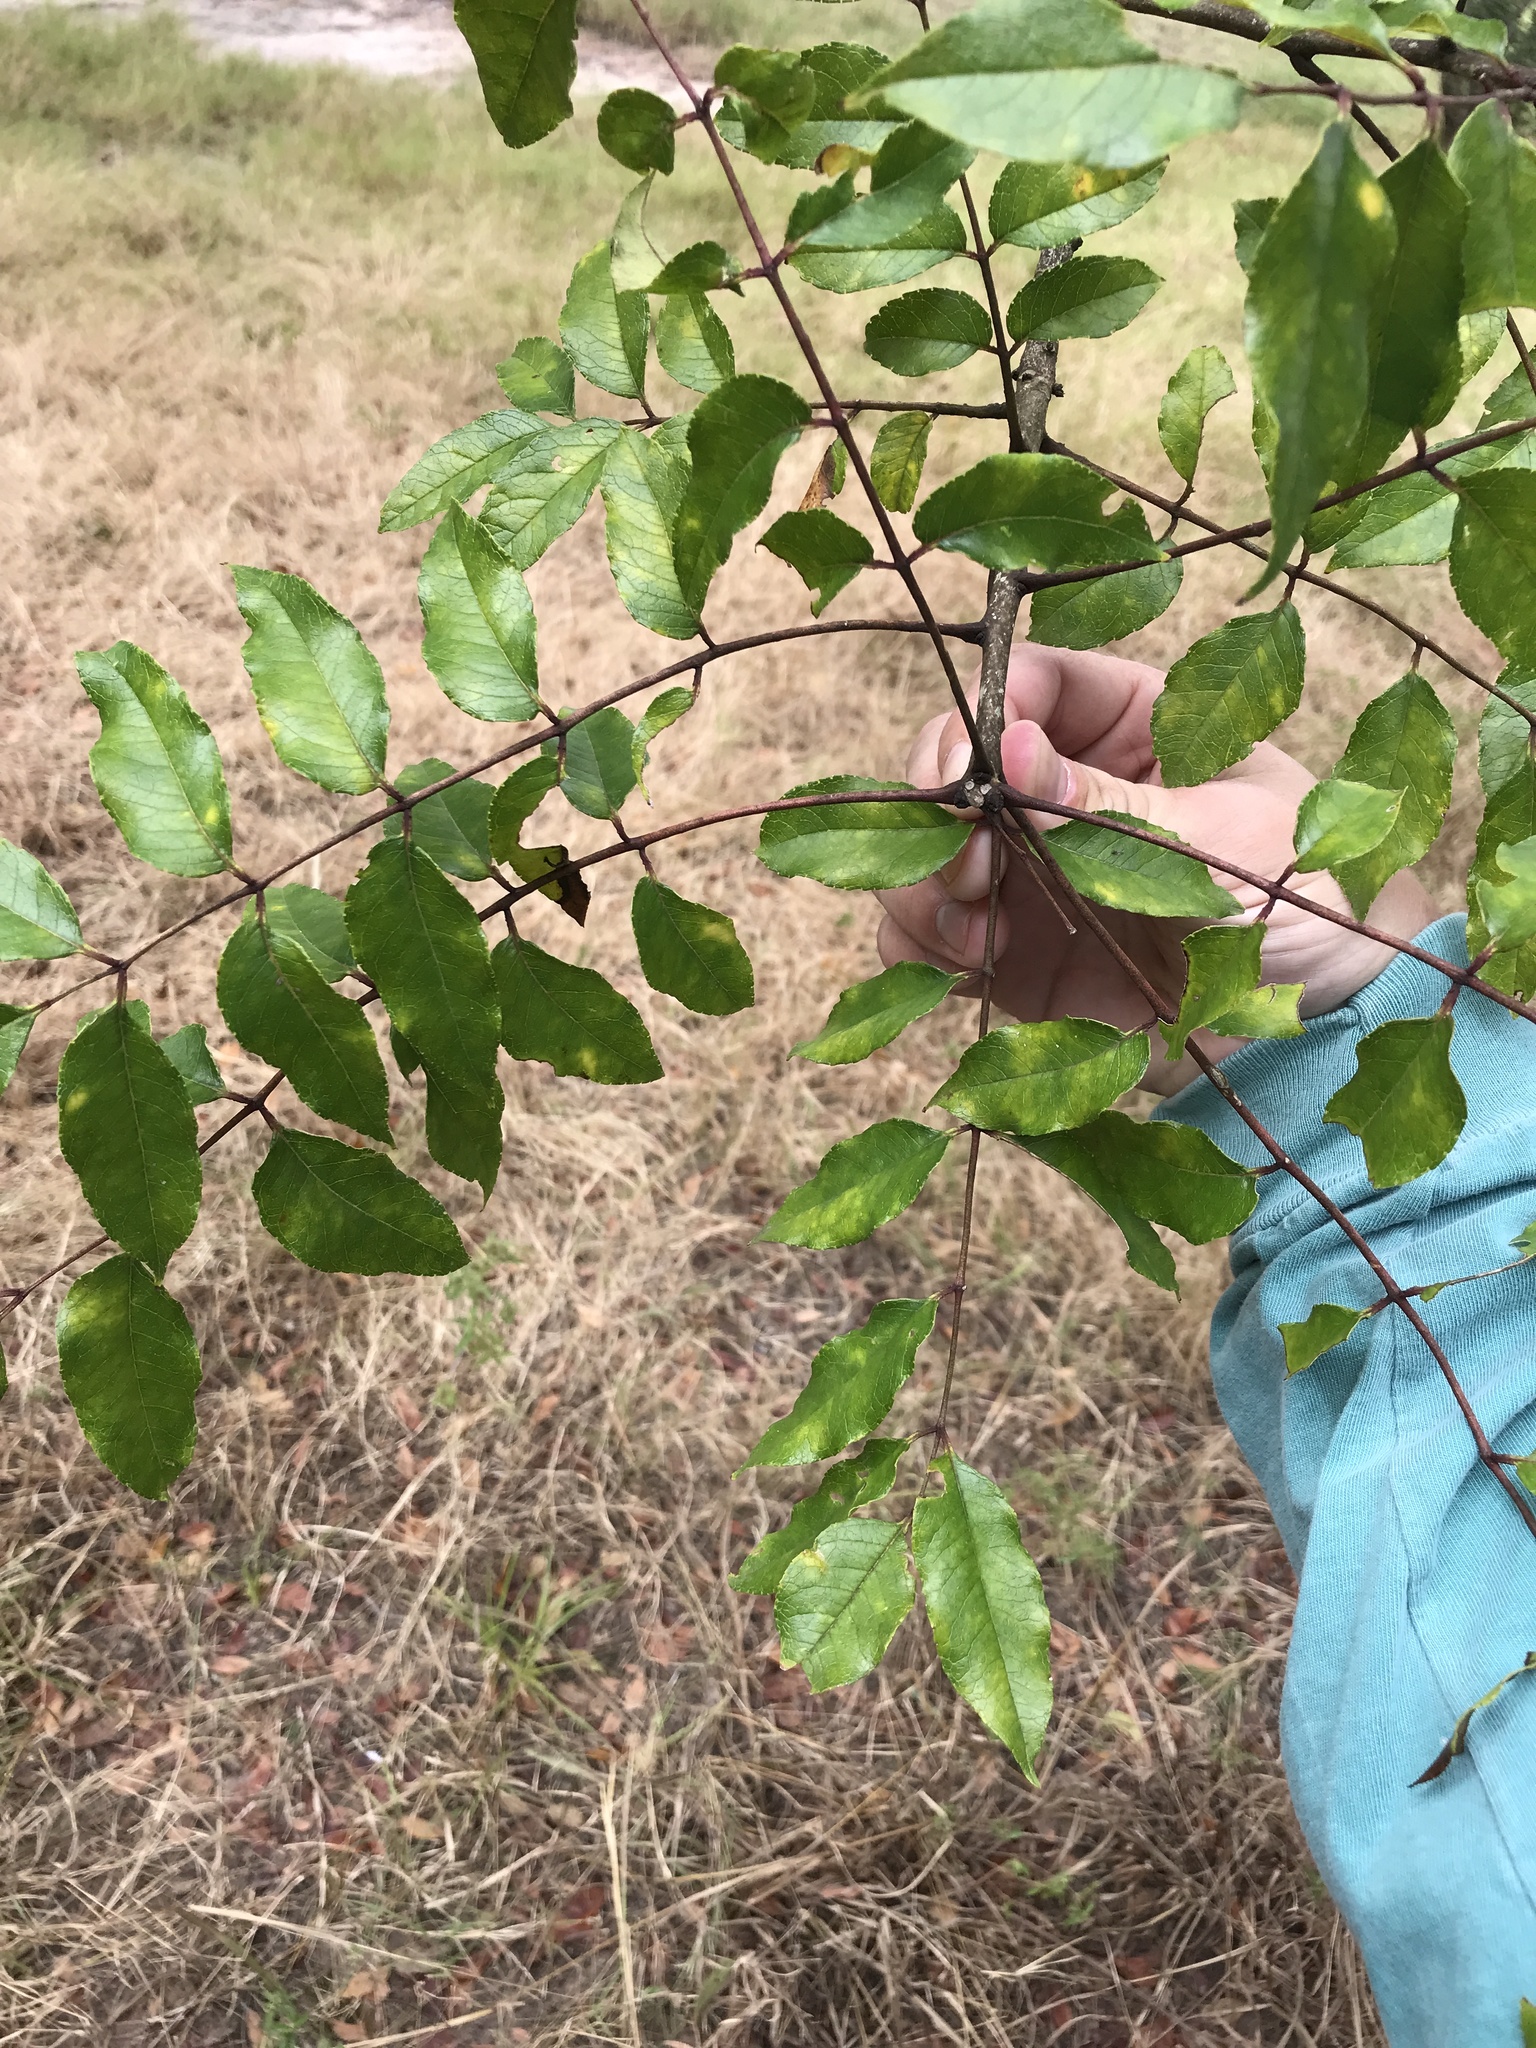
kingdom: Plantae
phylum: Tracheophyta
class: Magnoliopsida
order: Sapindales
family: Rutaceae
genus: Zanthoxylum
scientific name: Zanthoxylum clava-herculis
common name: Hercules'-club
